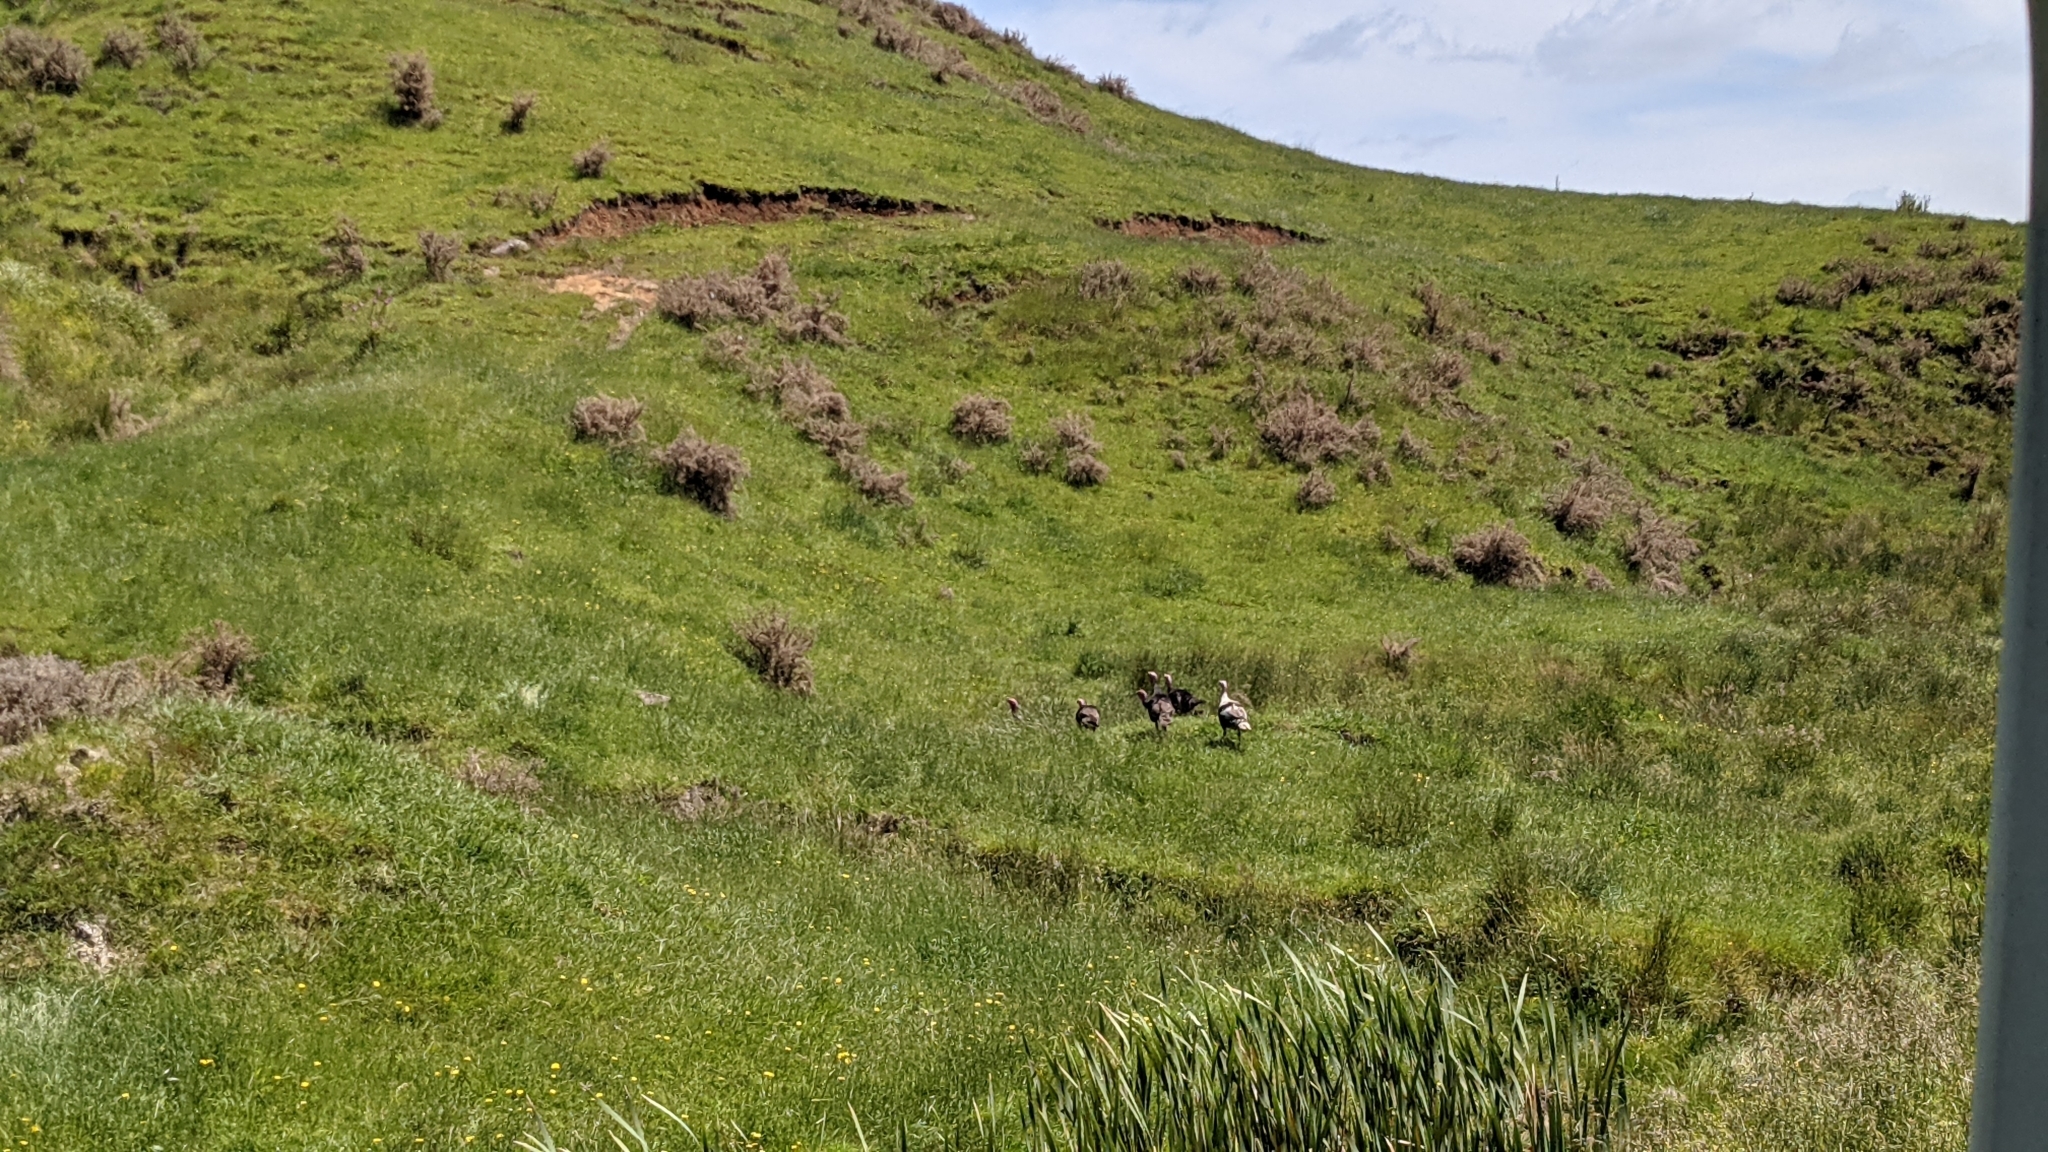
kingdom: Animalia
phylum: Chordata
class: Aves
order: Galliformes
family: Phasianidae
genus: Meleagris
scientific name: Meleagris gallopavo
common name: Wild turkey
